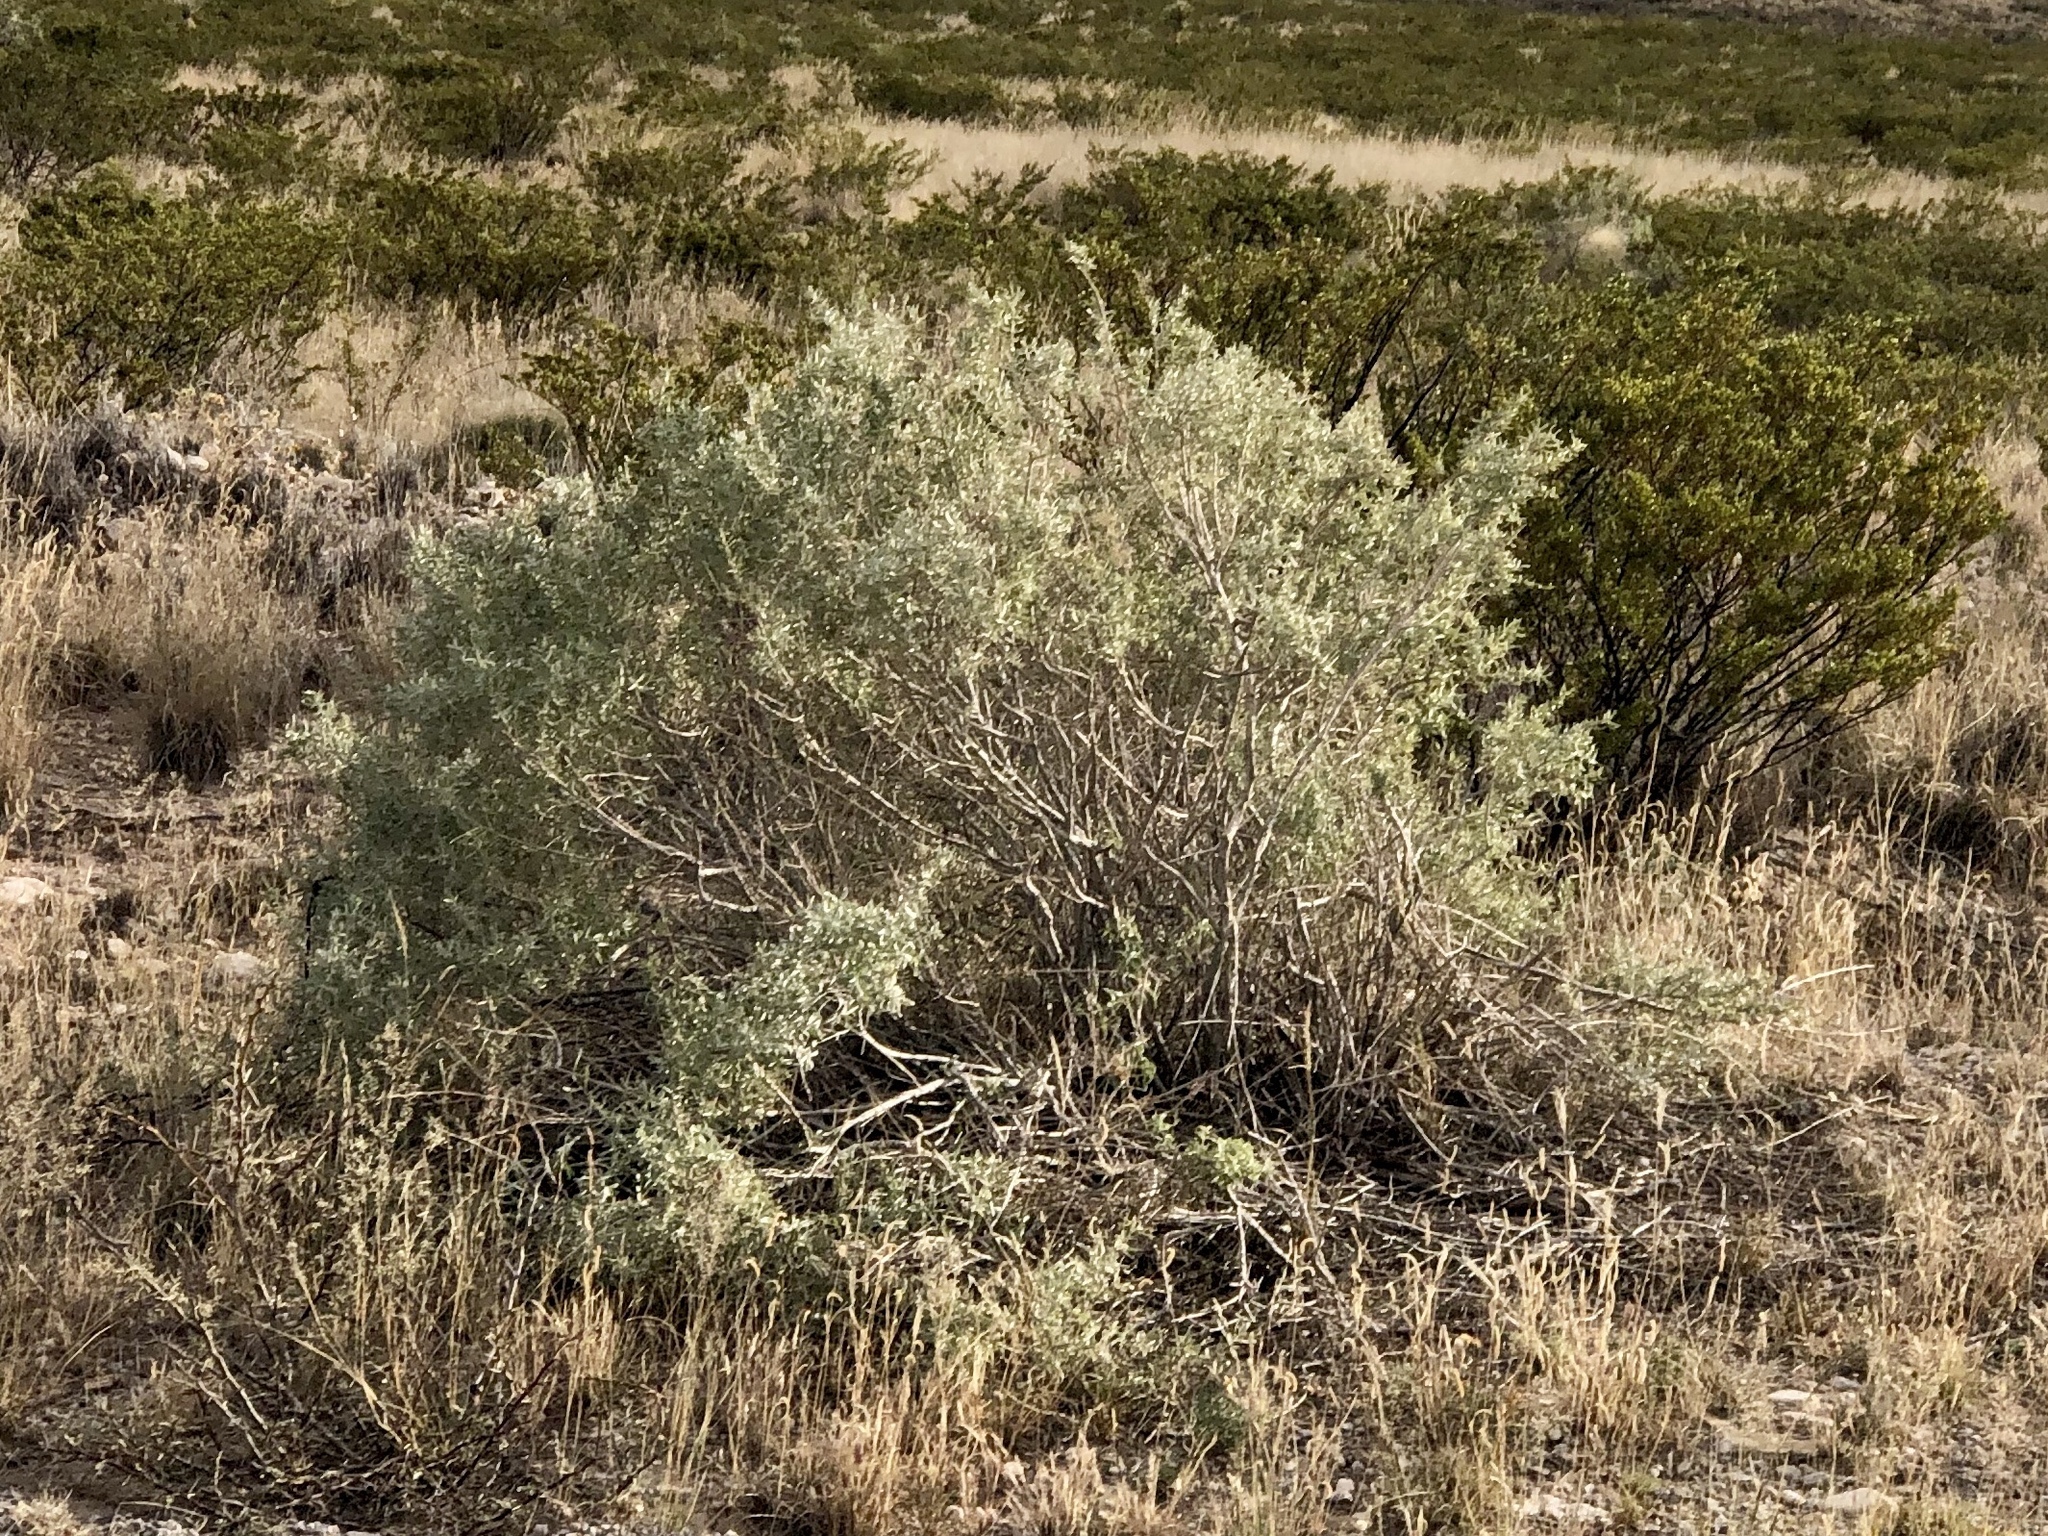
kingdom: Plantae
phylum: Tracheophyta
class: Magnoliopsida
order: Caryophyllales
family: Amaranthaceae
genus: Atriplex
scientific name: Atriplex canescens
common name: Four-wing saltbush
